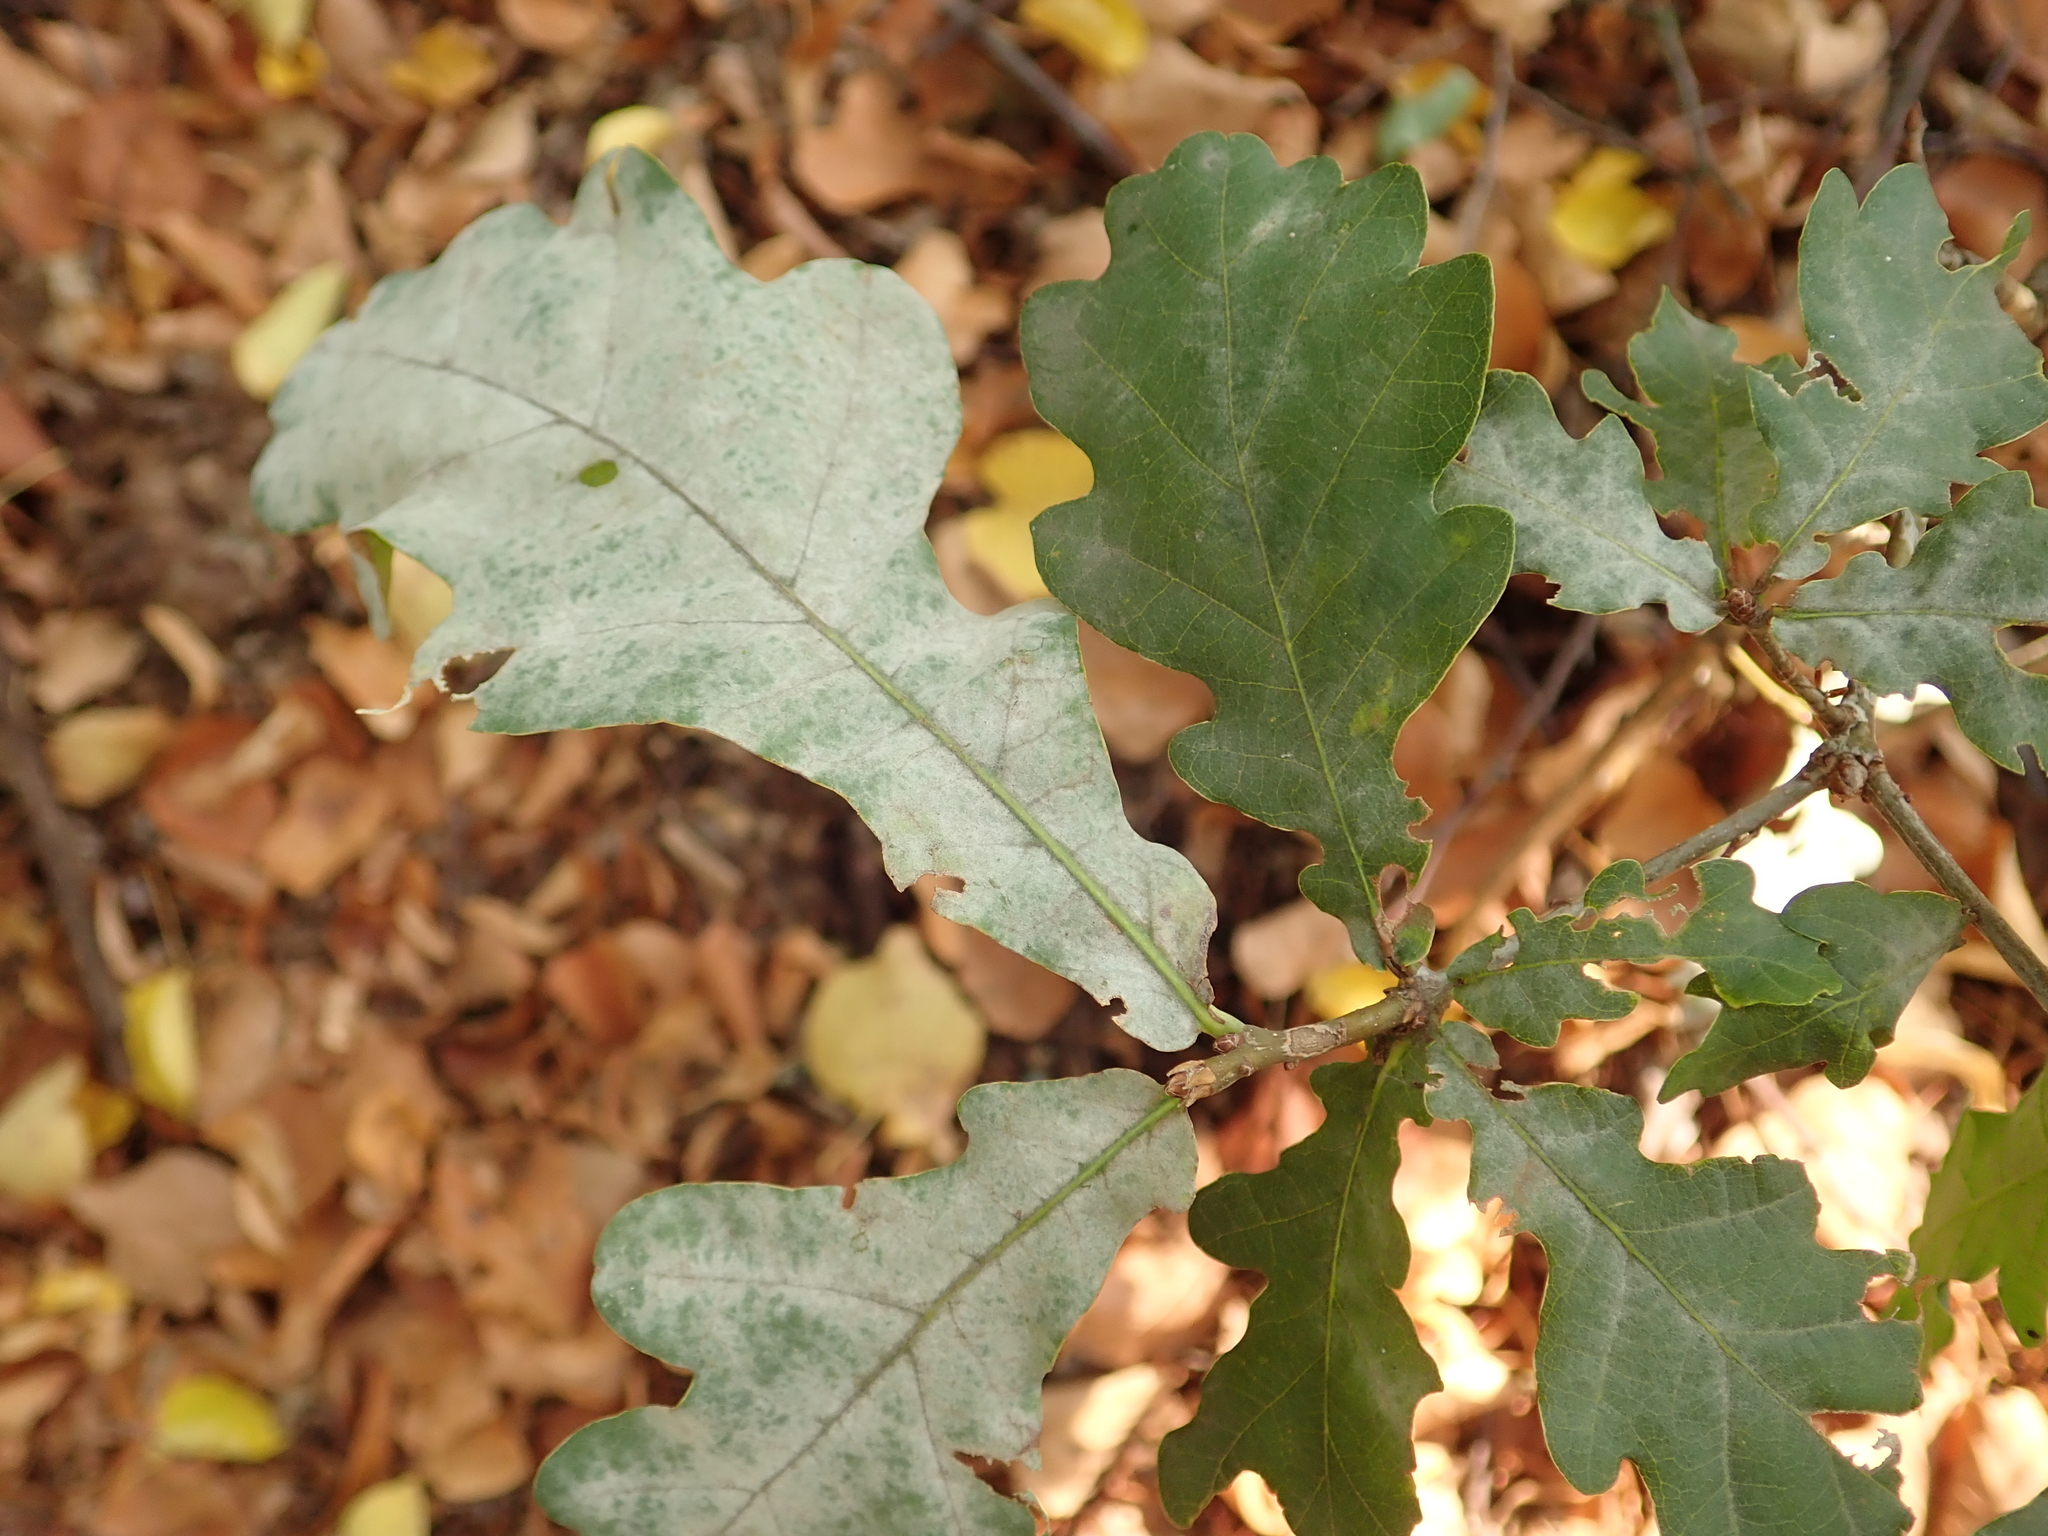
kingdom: Plantae
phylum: Tracheophyta
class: Magnoliopsida
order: Fagales
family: Fagaceae
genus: Quercus
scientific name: Quercus robur
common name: Pedunculate oak
